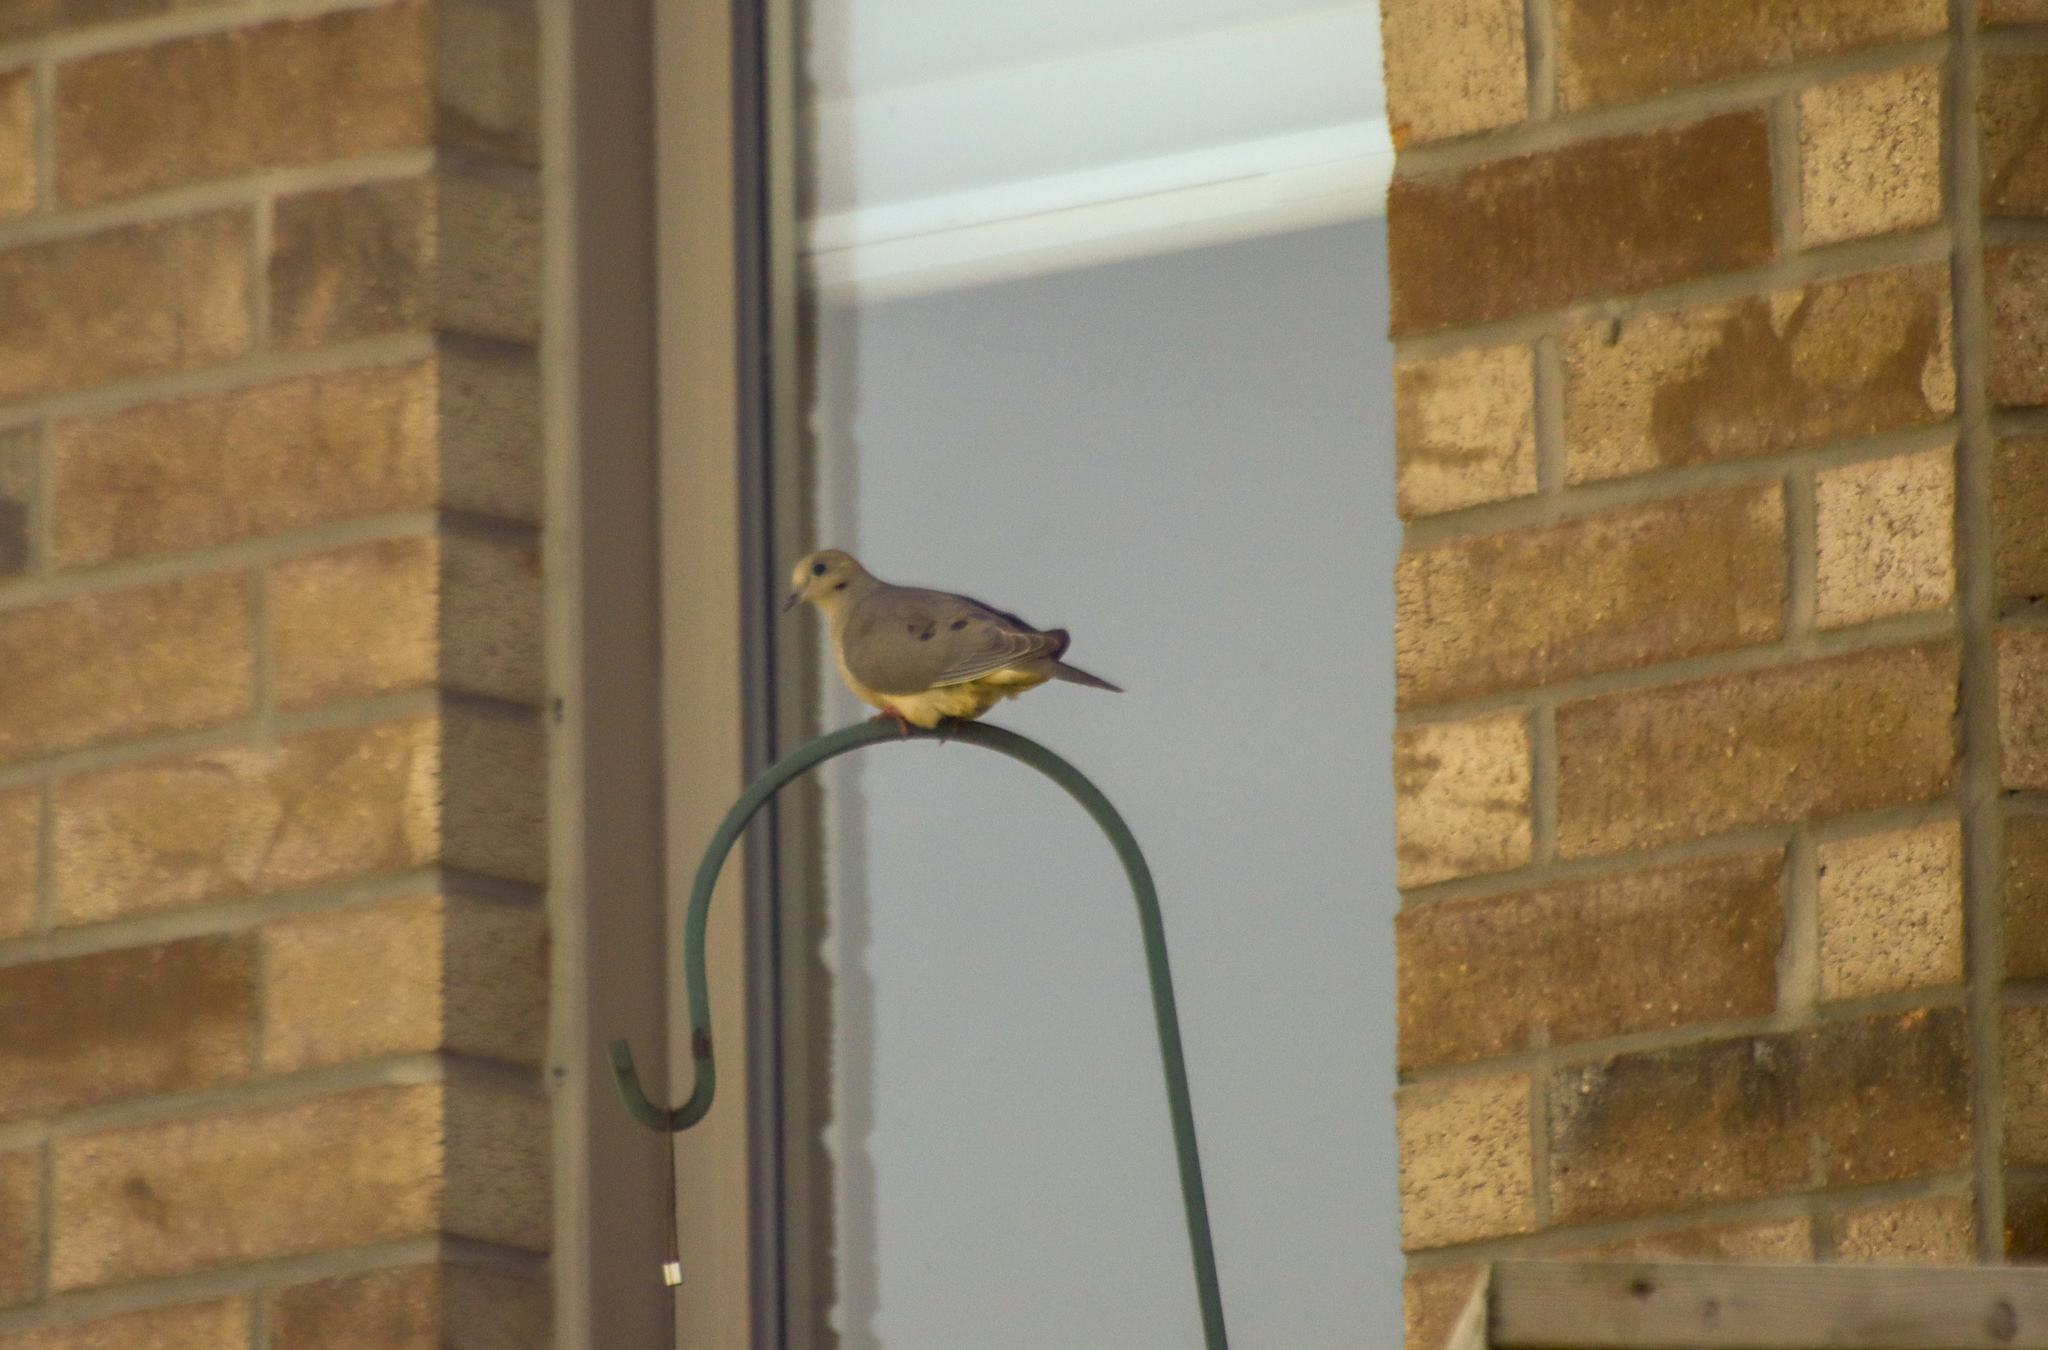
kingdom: Animalia
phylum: Chordata
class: Aves
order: Columbiformes
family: Columbidae
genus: Zenaida
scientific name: Zenaida macroura
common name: Mourning dove
